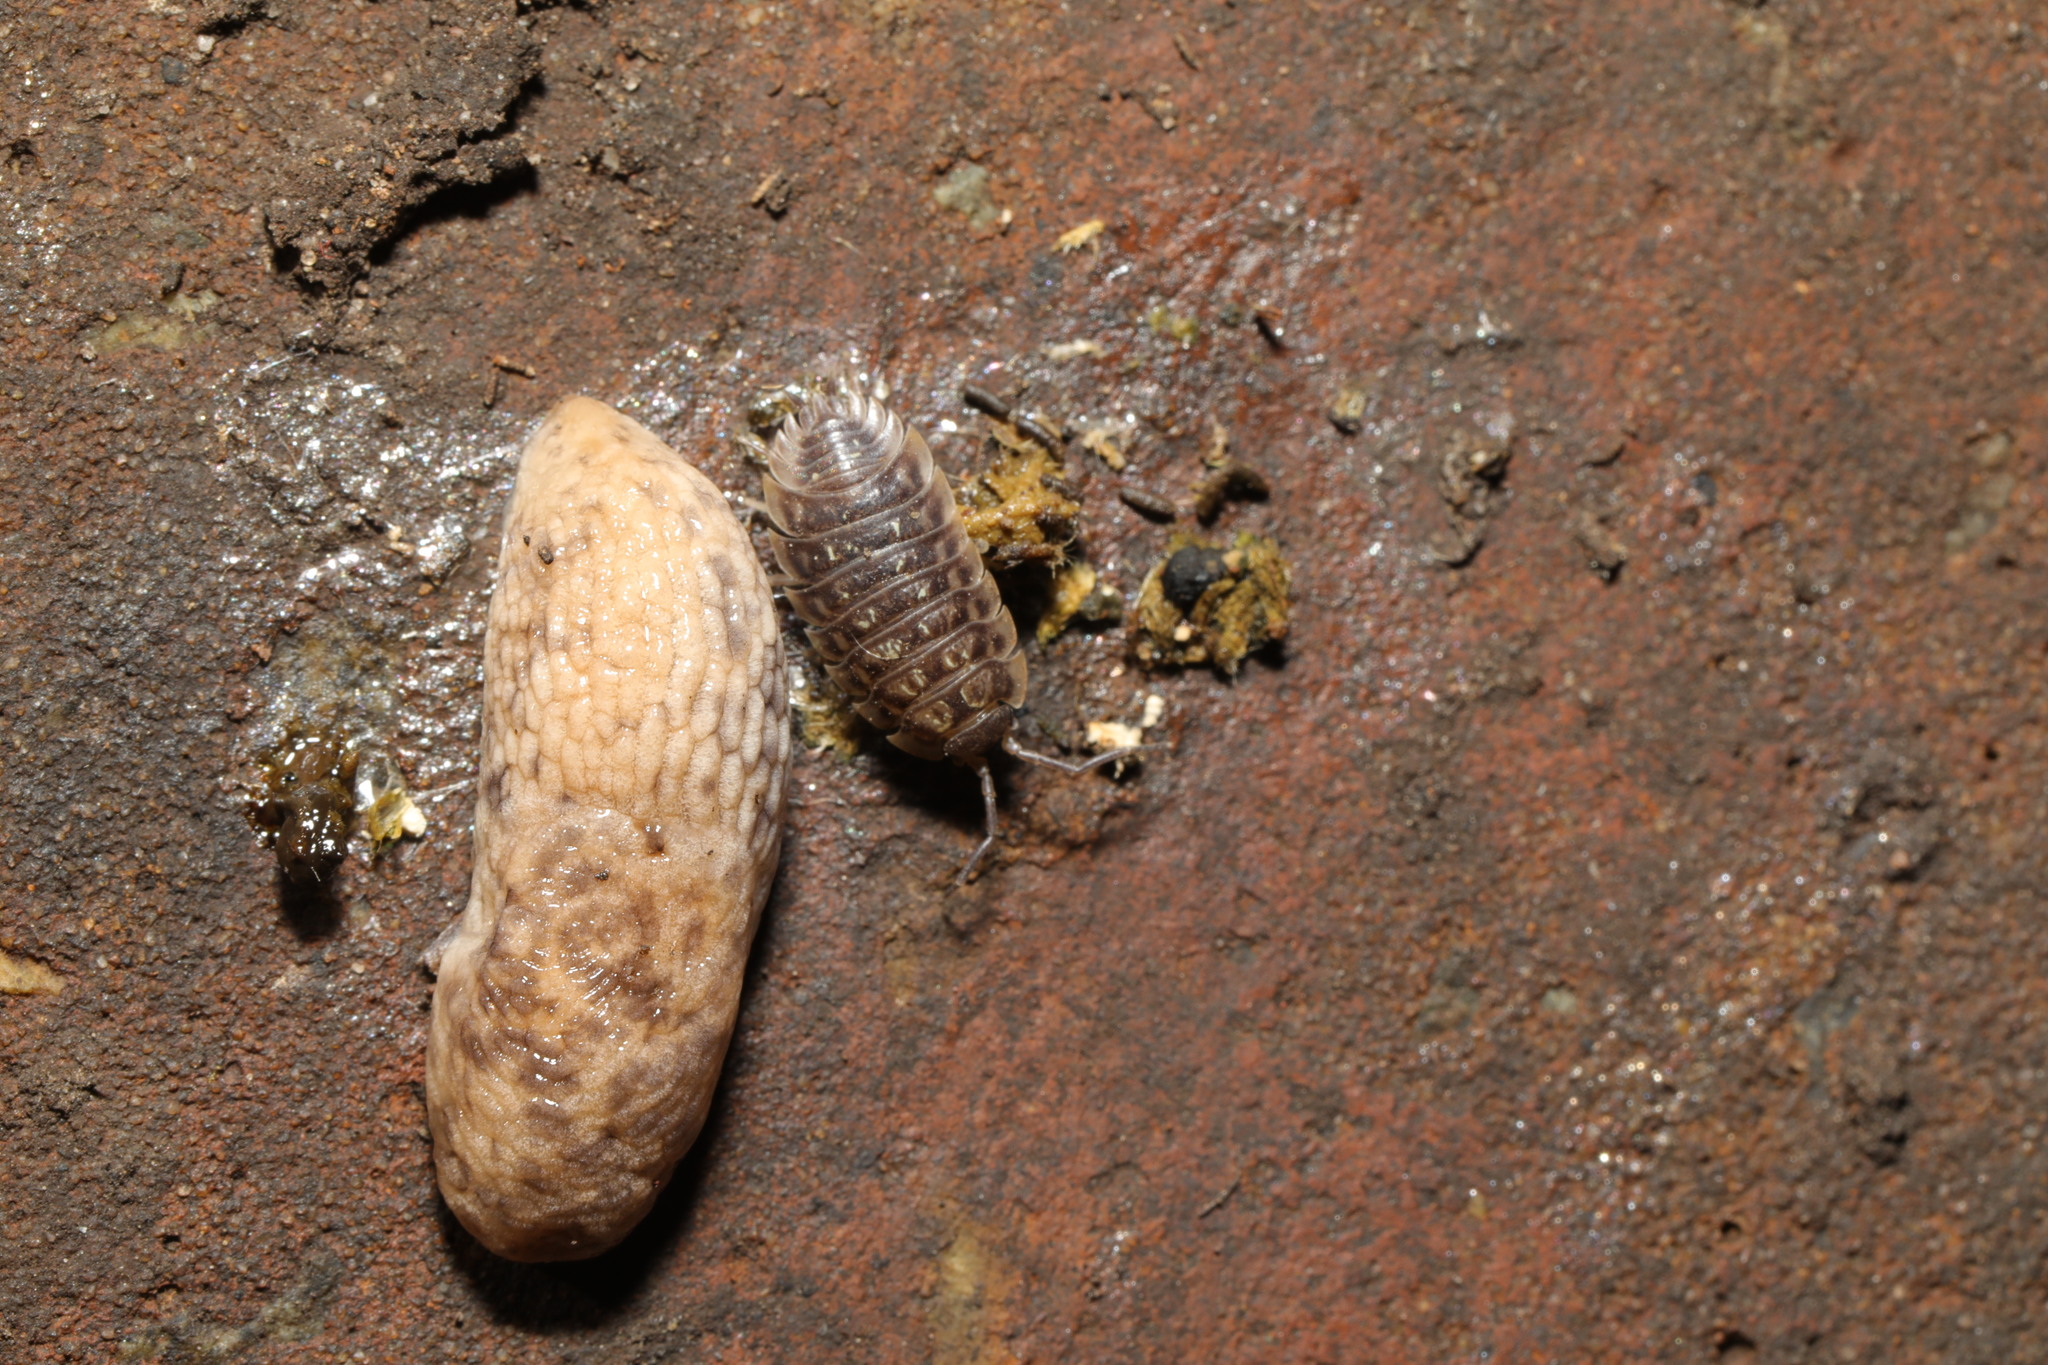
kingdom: Animalia
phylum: Mollusca
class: Gastropoda
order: Stylommatophora
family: Agriolimacidae
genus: Deroceras
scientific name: Deroceras reticulatum
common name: Gray field slug
